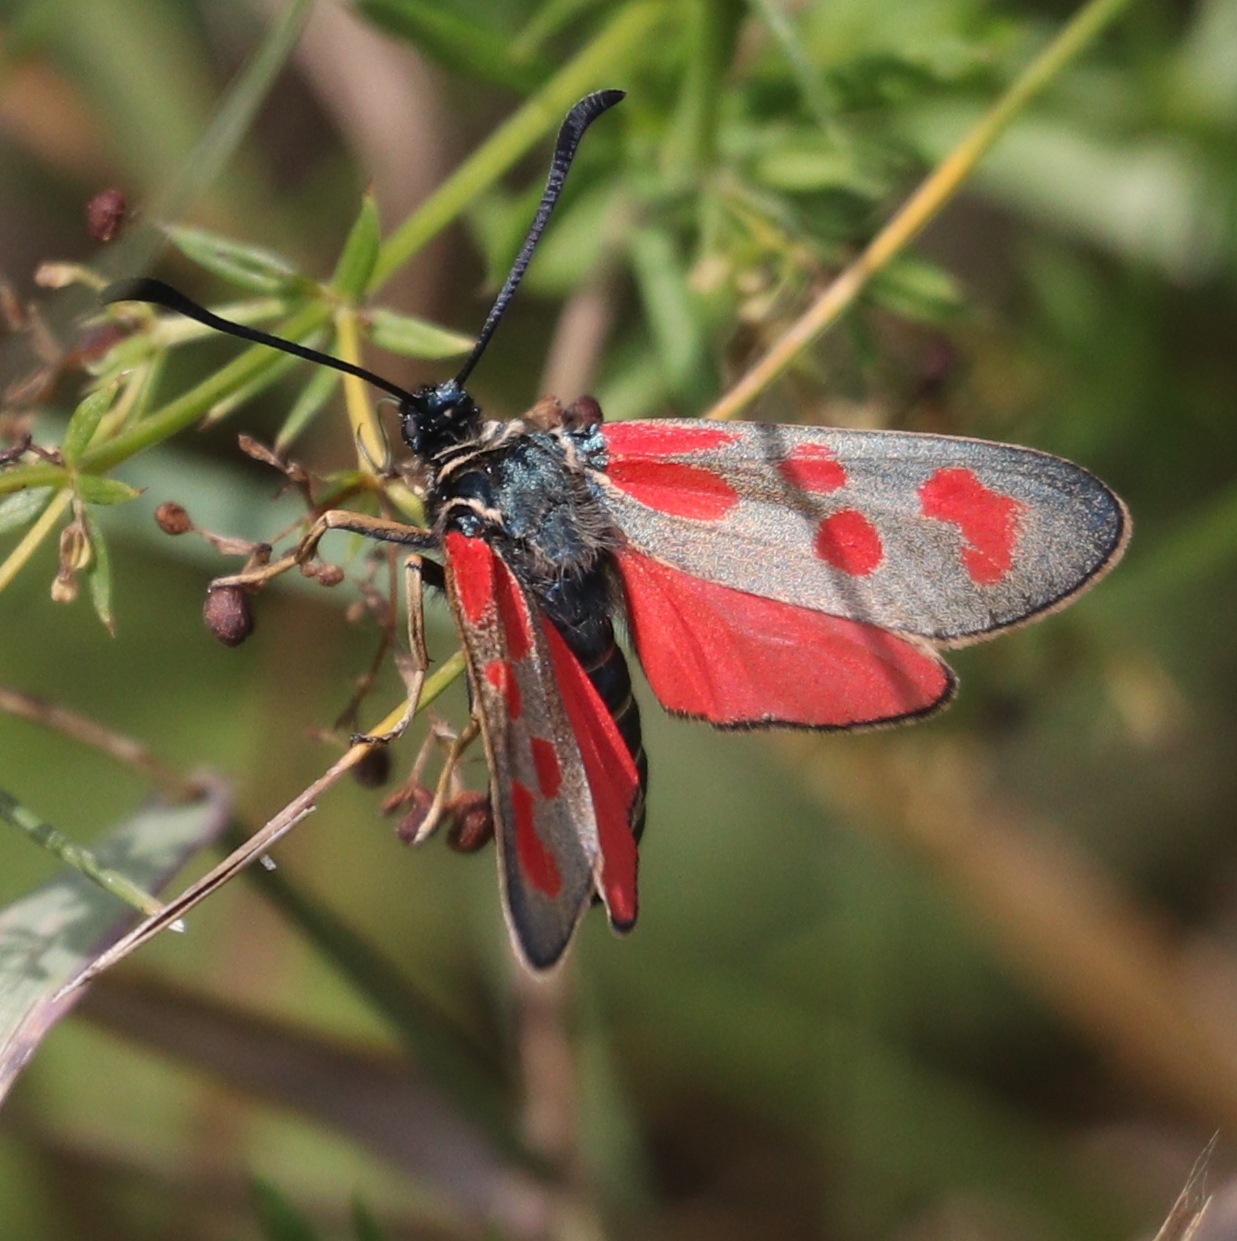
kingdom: Animalia
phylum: Arthropoda
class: Insecta
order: Lepidoptera
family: Zygaenidae
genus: Zygaena
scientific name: Zygaena loti
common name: Slender scotch burnet
